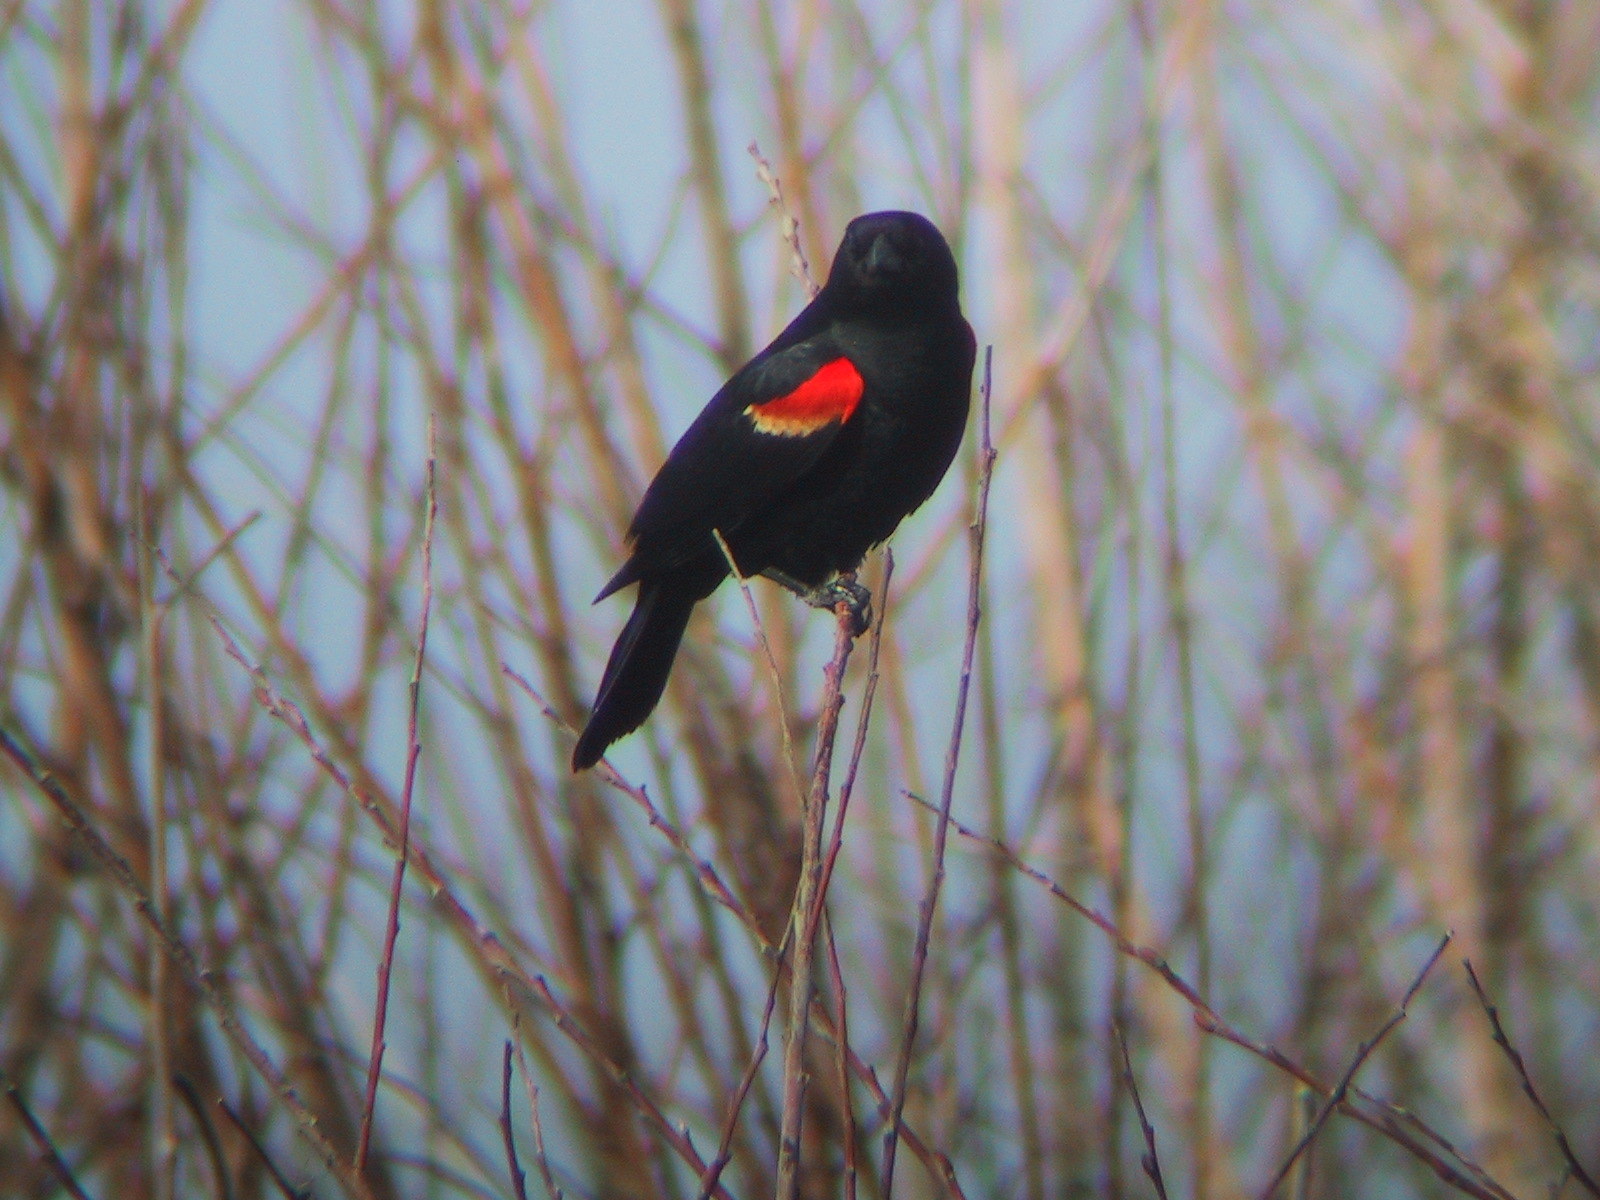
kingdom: Animalia
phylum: Chordata
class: Aves
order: Passeriformes
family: Icteridae
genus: Agelaius
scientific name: Agelaius phoeniceus
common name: Red-winged blackbird
